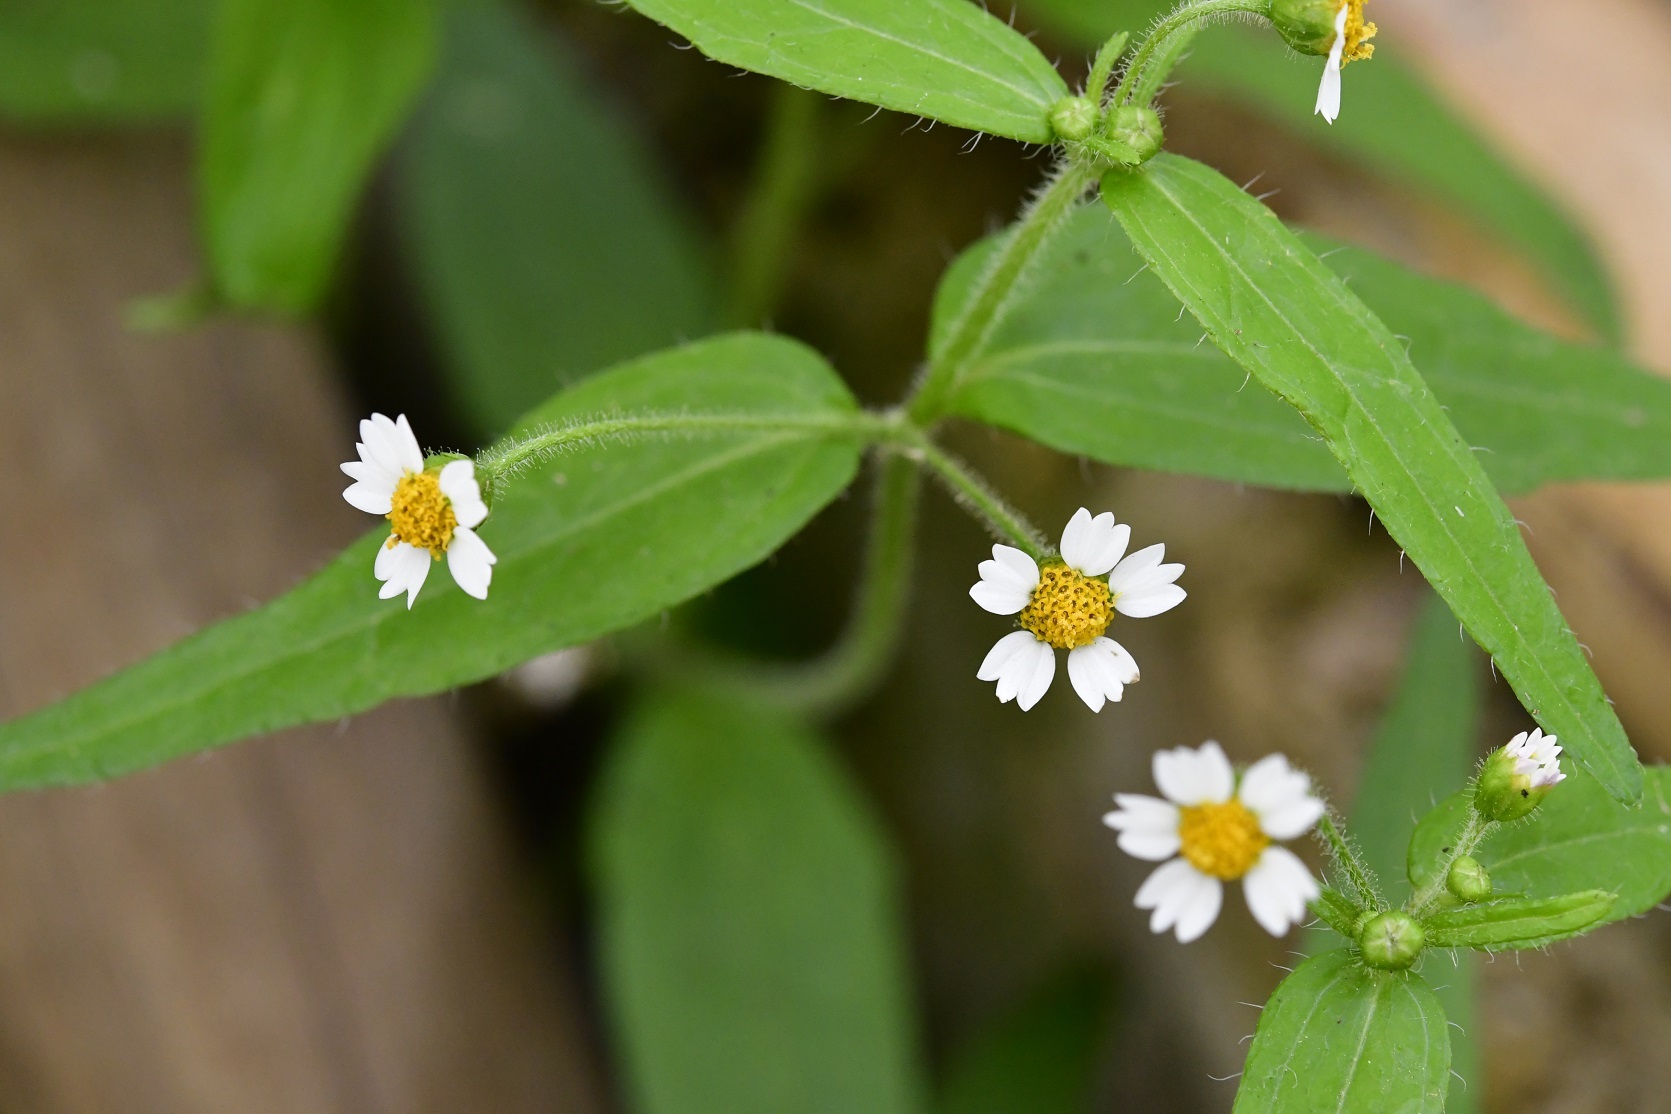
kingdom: Plantae
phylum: Tracheophyta
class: Magnoliopsida
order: Asterales
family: Asteraceae
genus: Galinsoga
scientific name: Galinsoga quadriradiata
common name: Shaggy soldier
